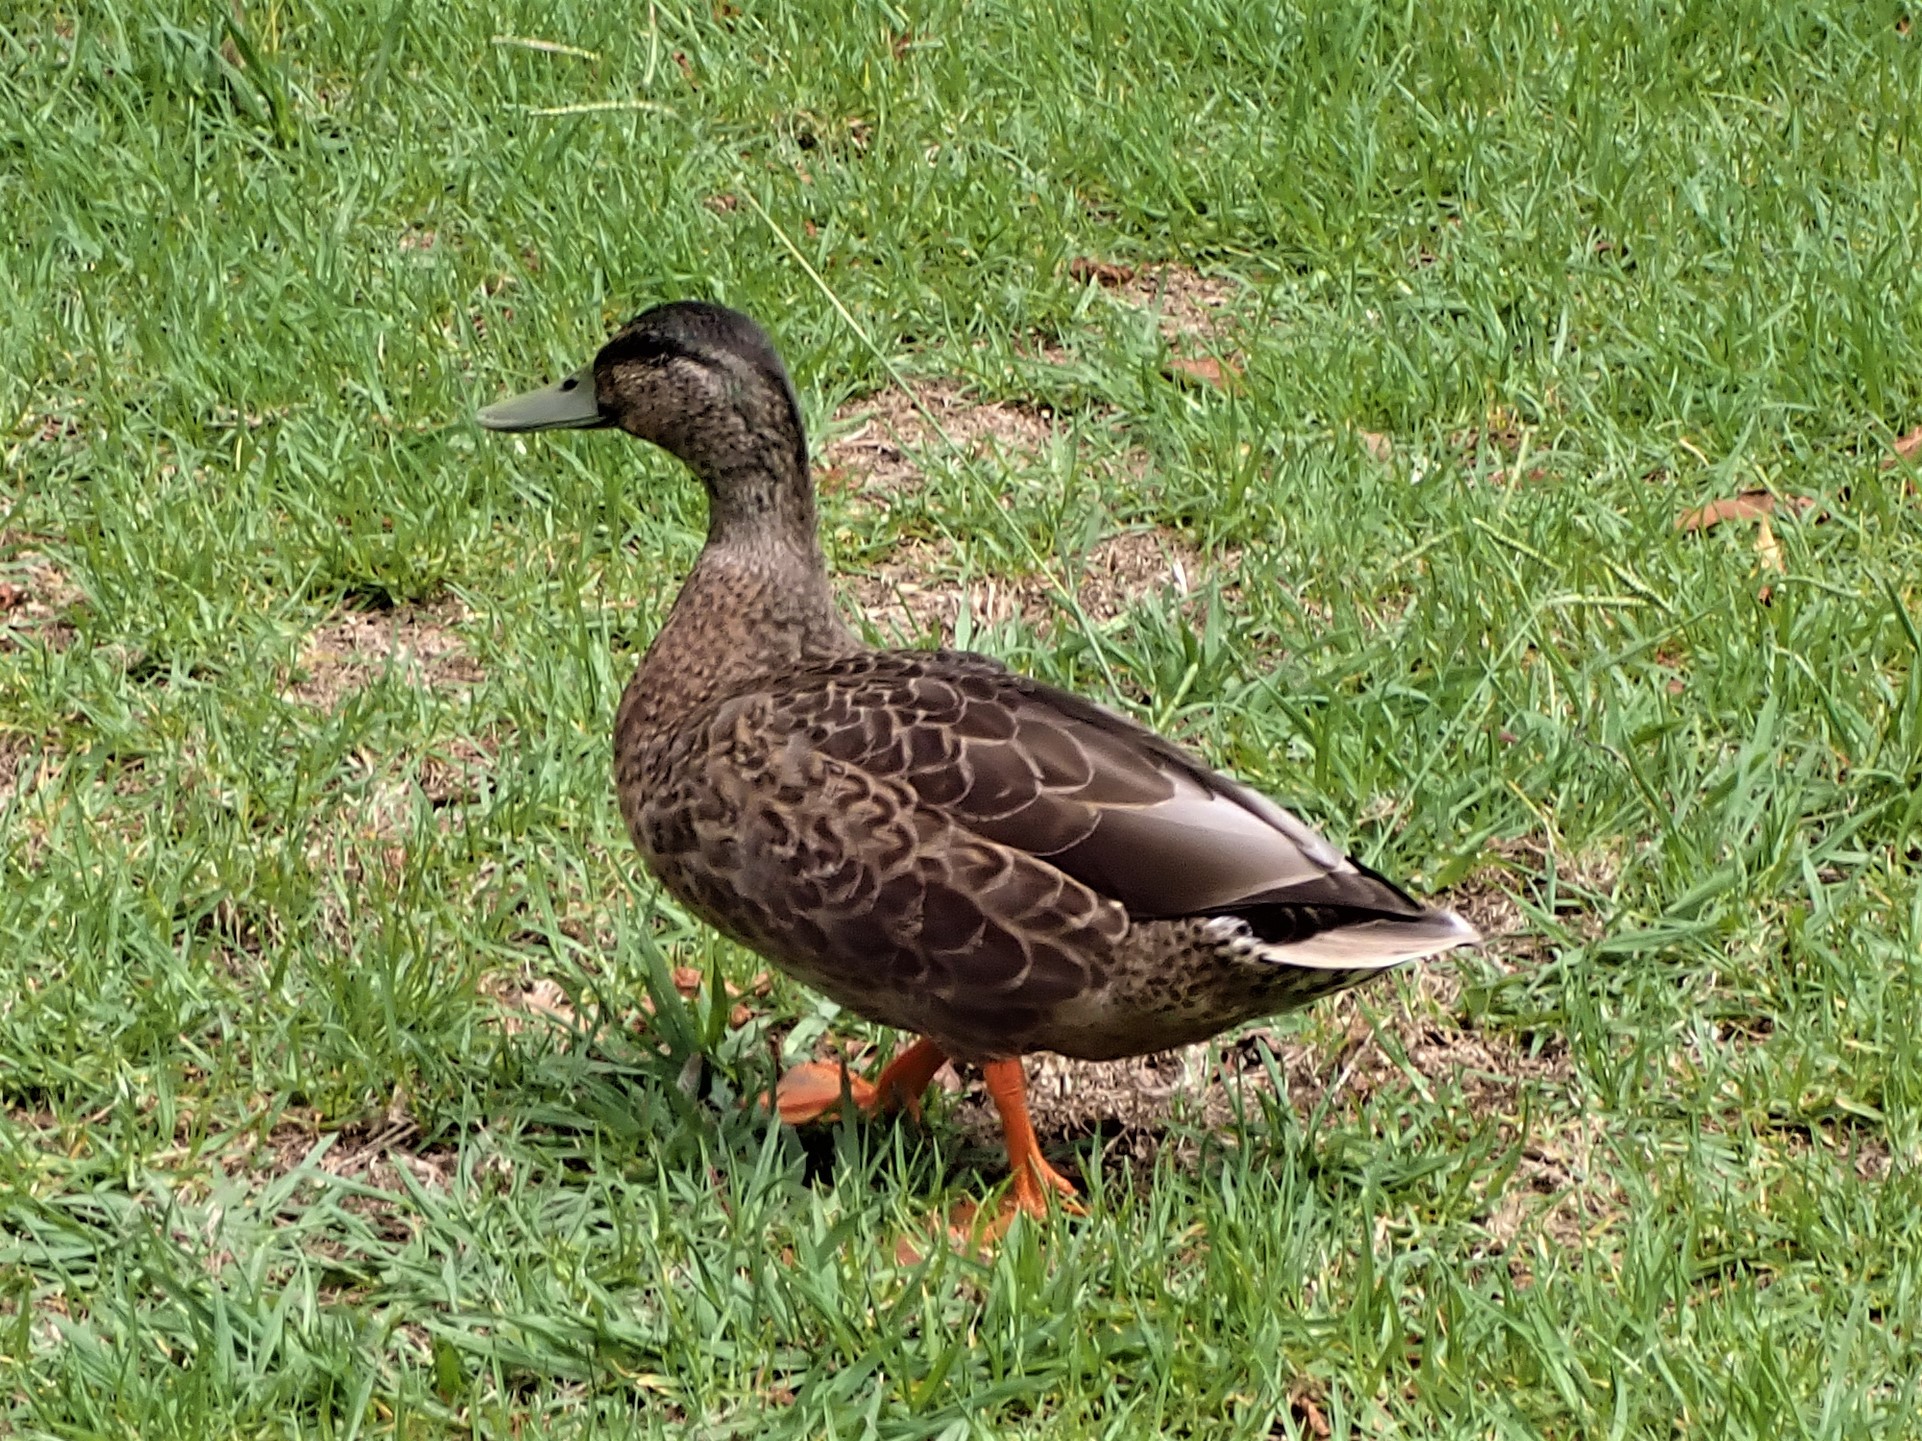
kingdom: Animalia
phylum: Chordata
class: Aves
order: Anseriformes
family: Anatidae
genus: Anas
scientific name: Anas
